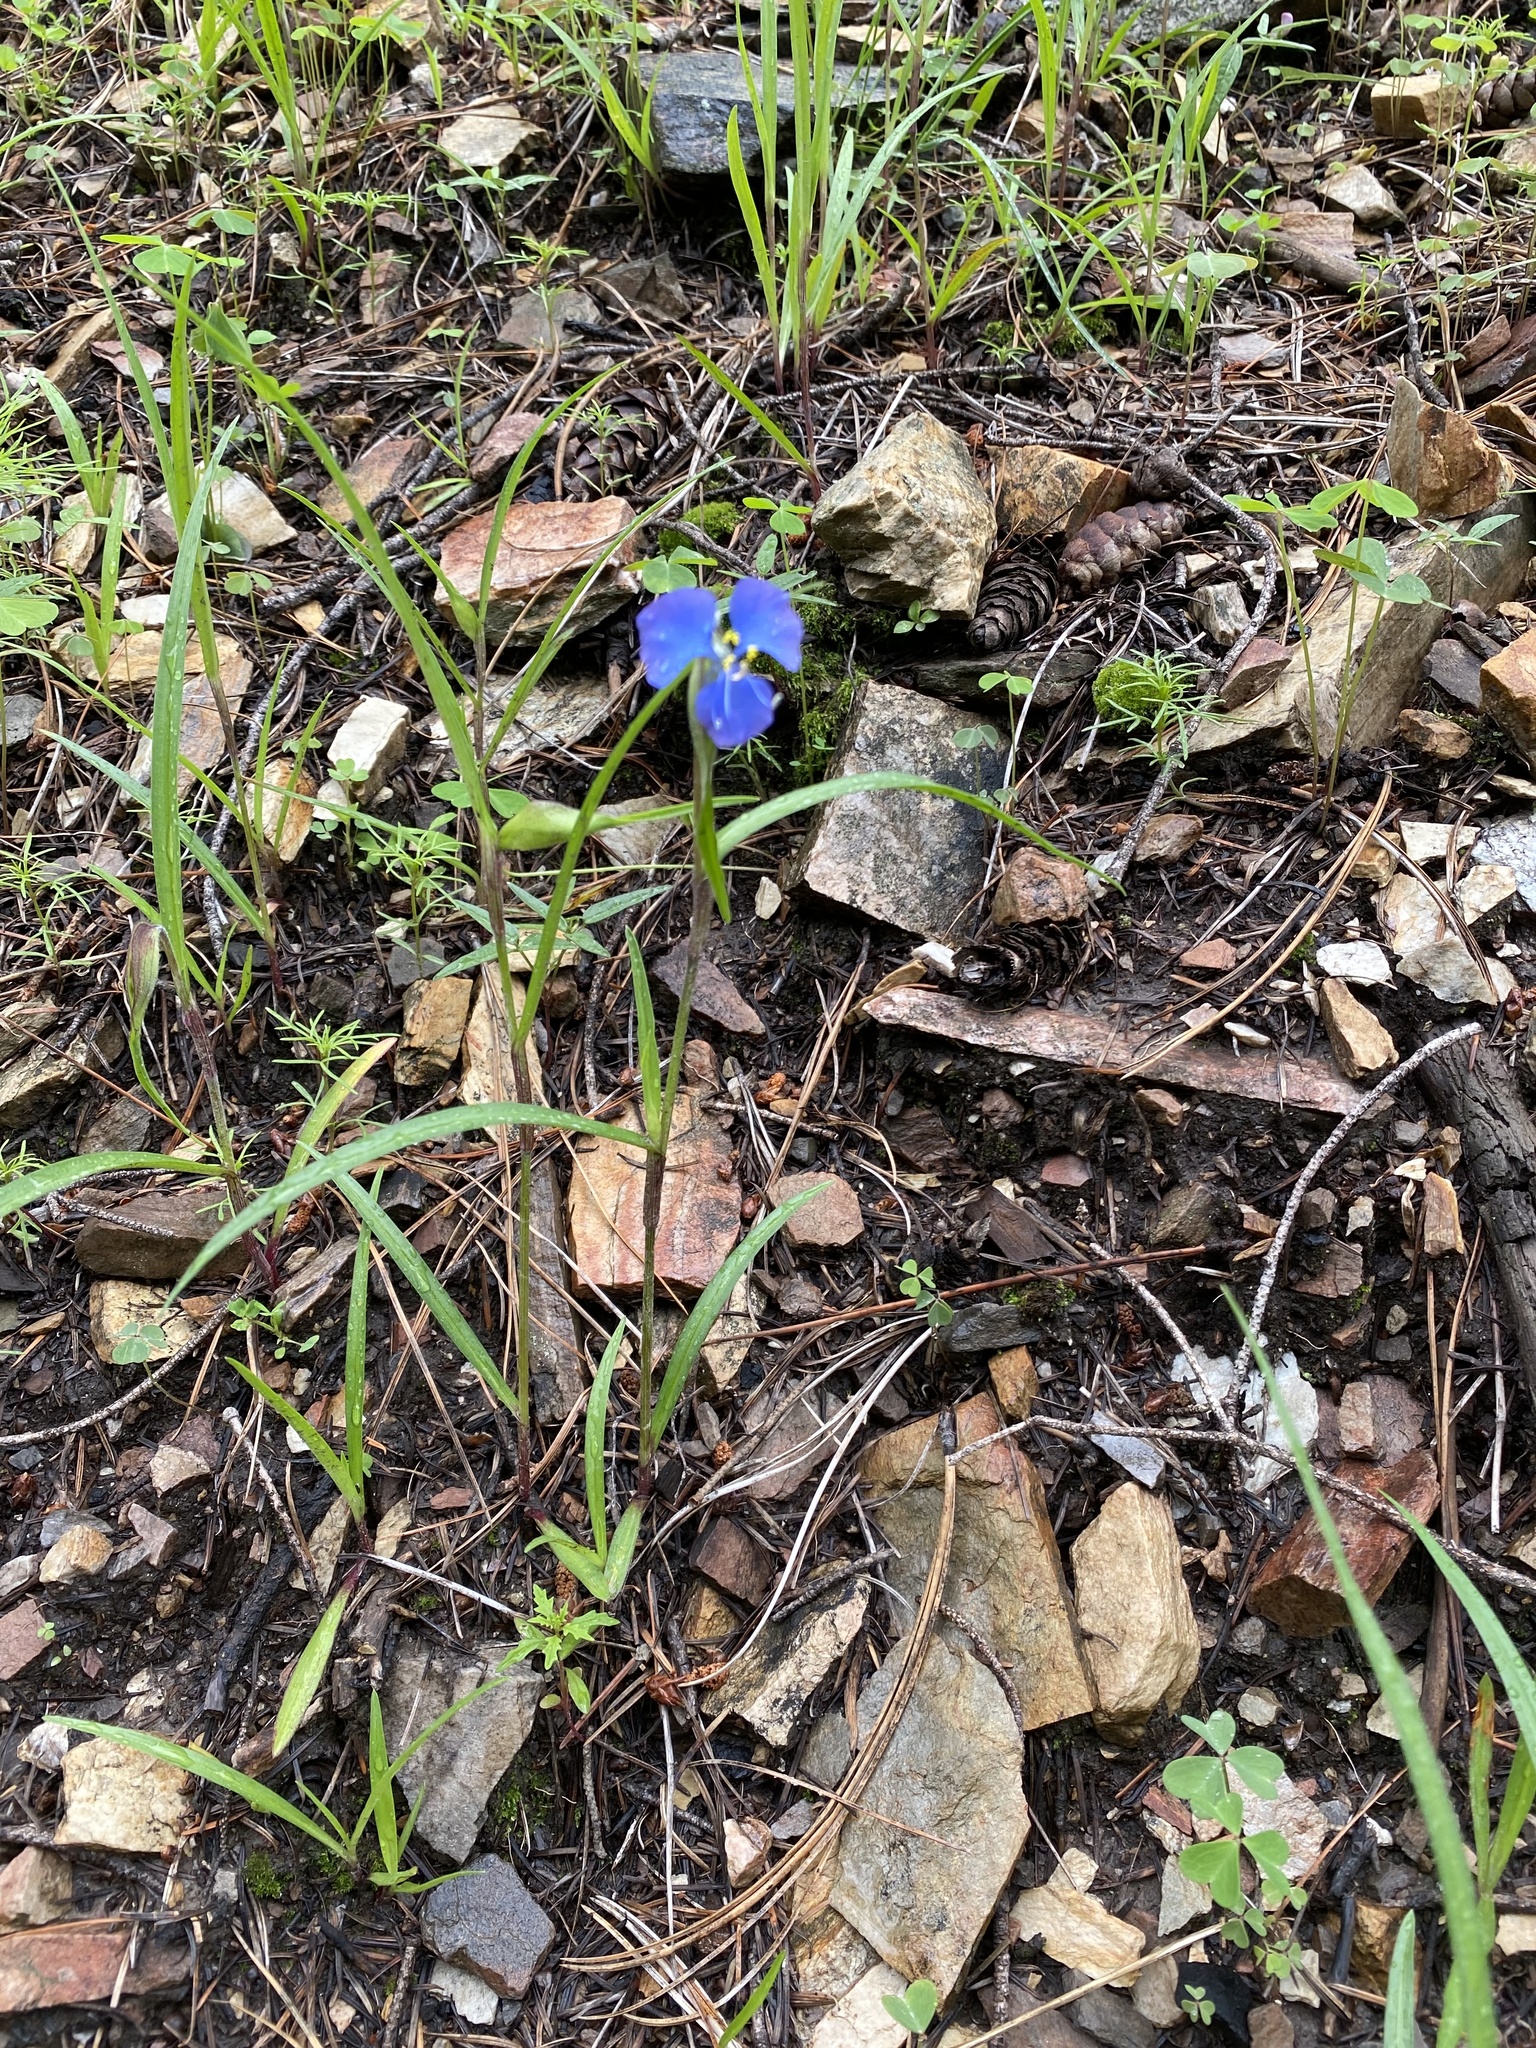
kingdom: Plantae
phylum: Tracheophyta
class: Liliopsida
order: Commelinales
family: Commelinaceae
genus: Commelina
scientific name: Commelina dianthifolia
